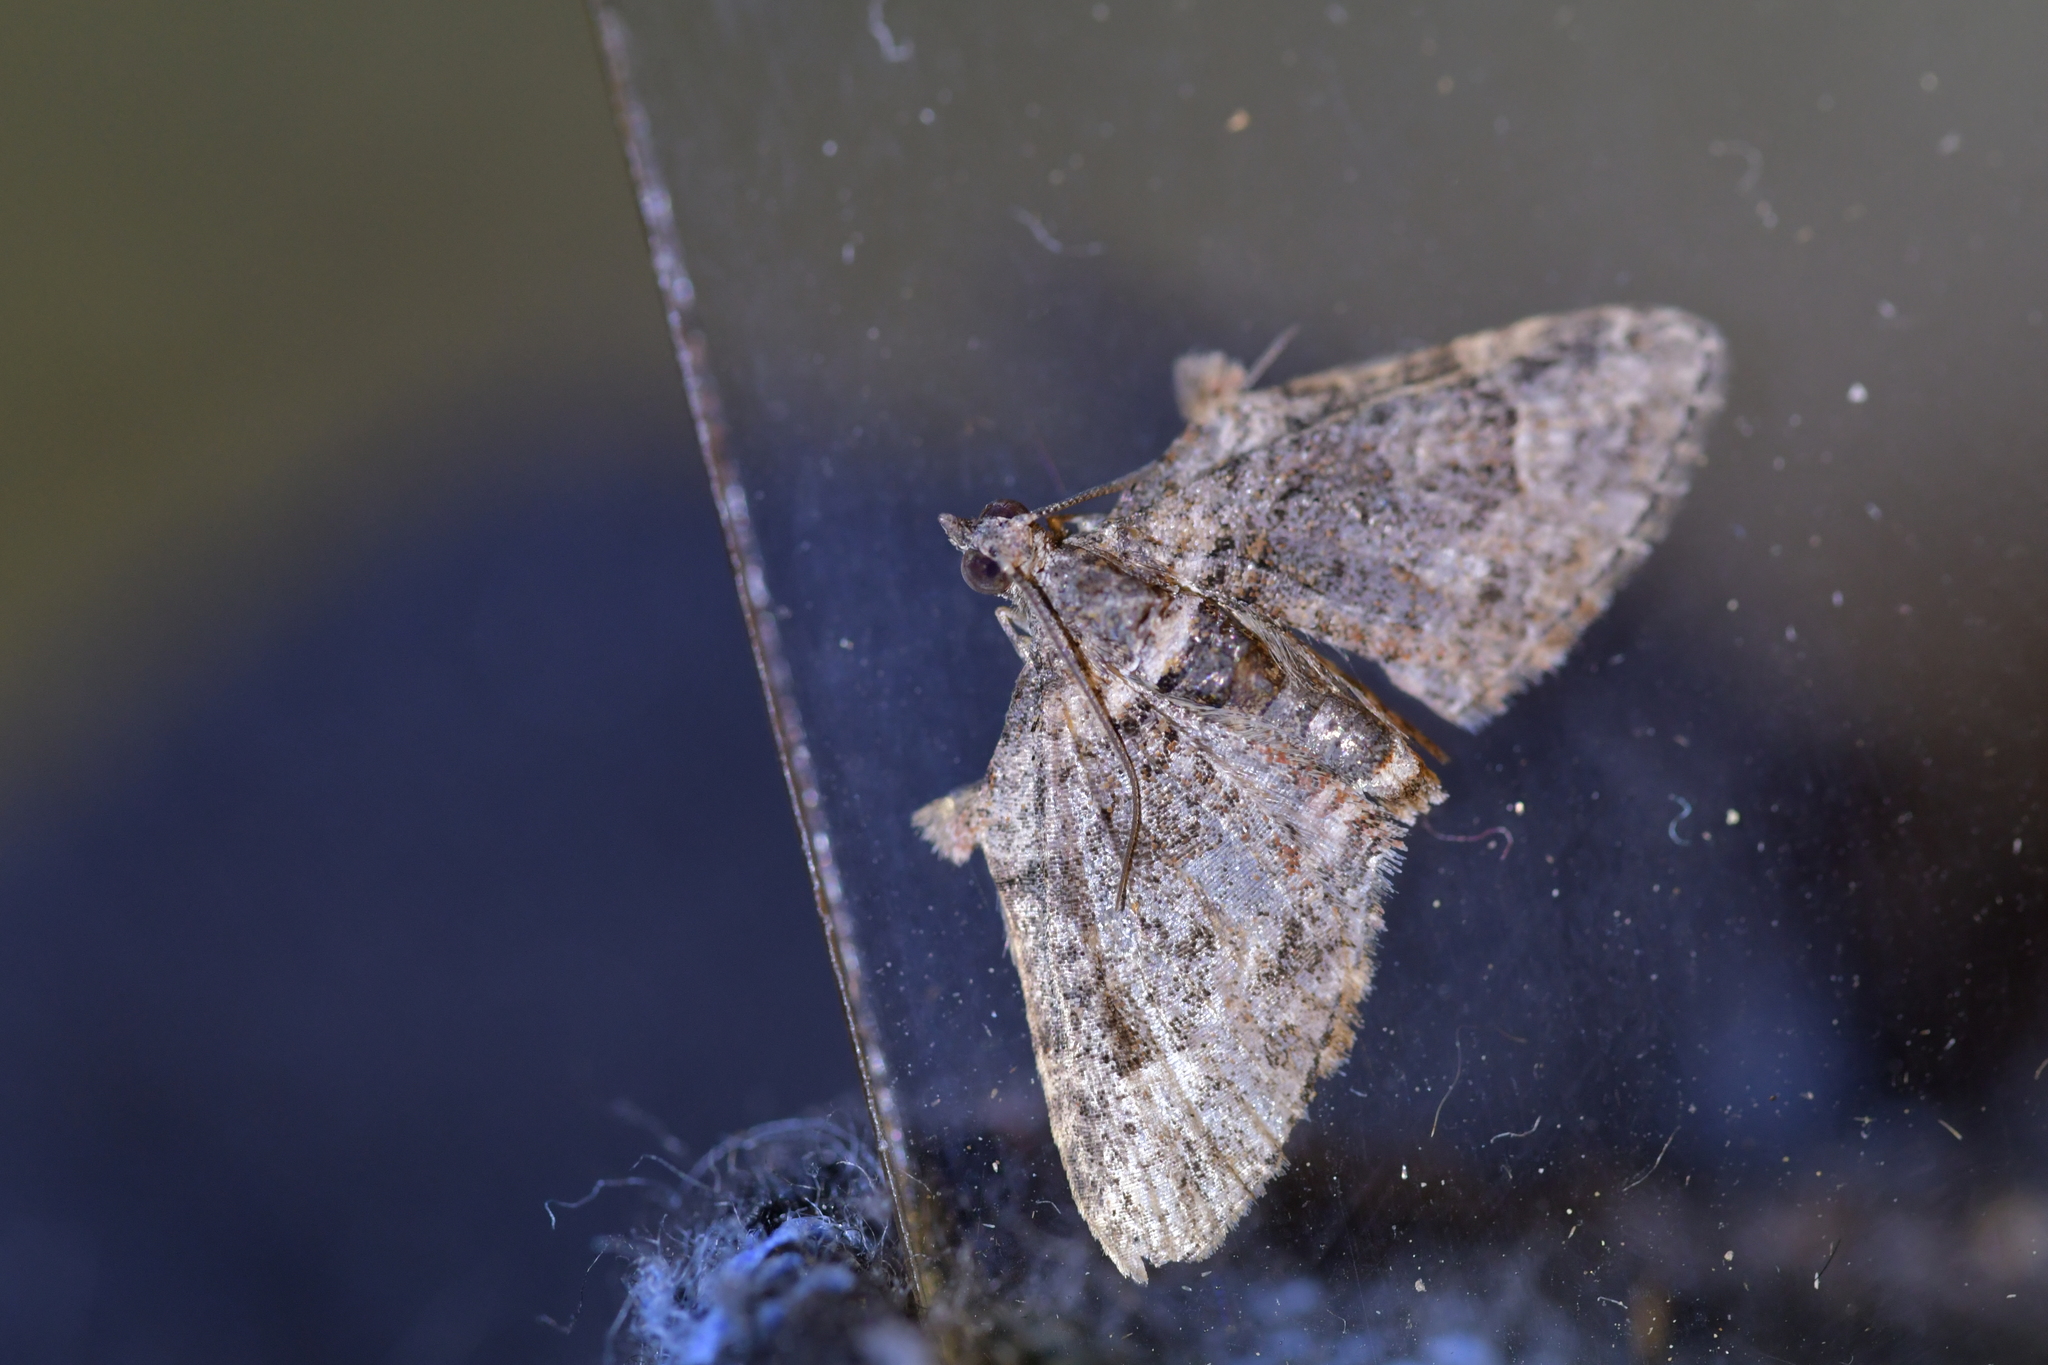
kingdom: Animalia
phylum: Arthropoda
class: Insecta
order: Lepidoptera
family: Geometridae
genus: Phrissogonus
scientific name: Phrissogonus laticostata
